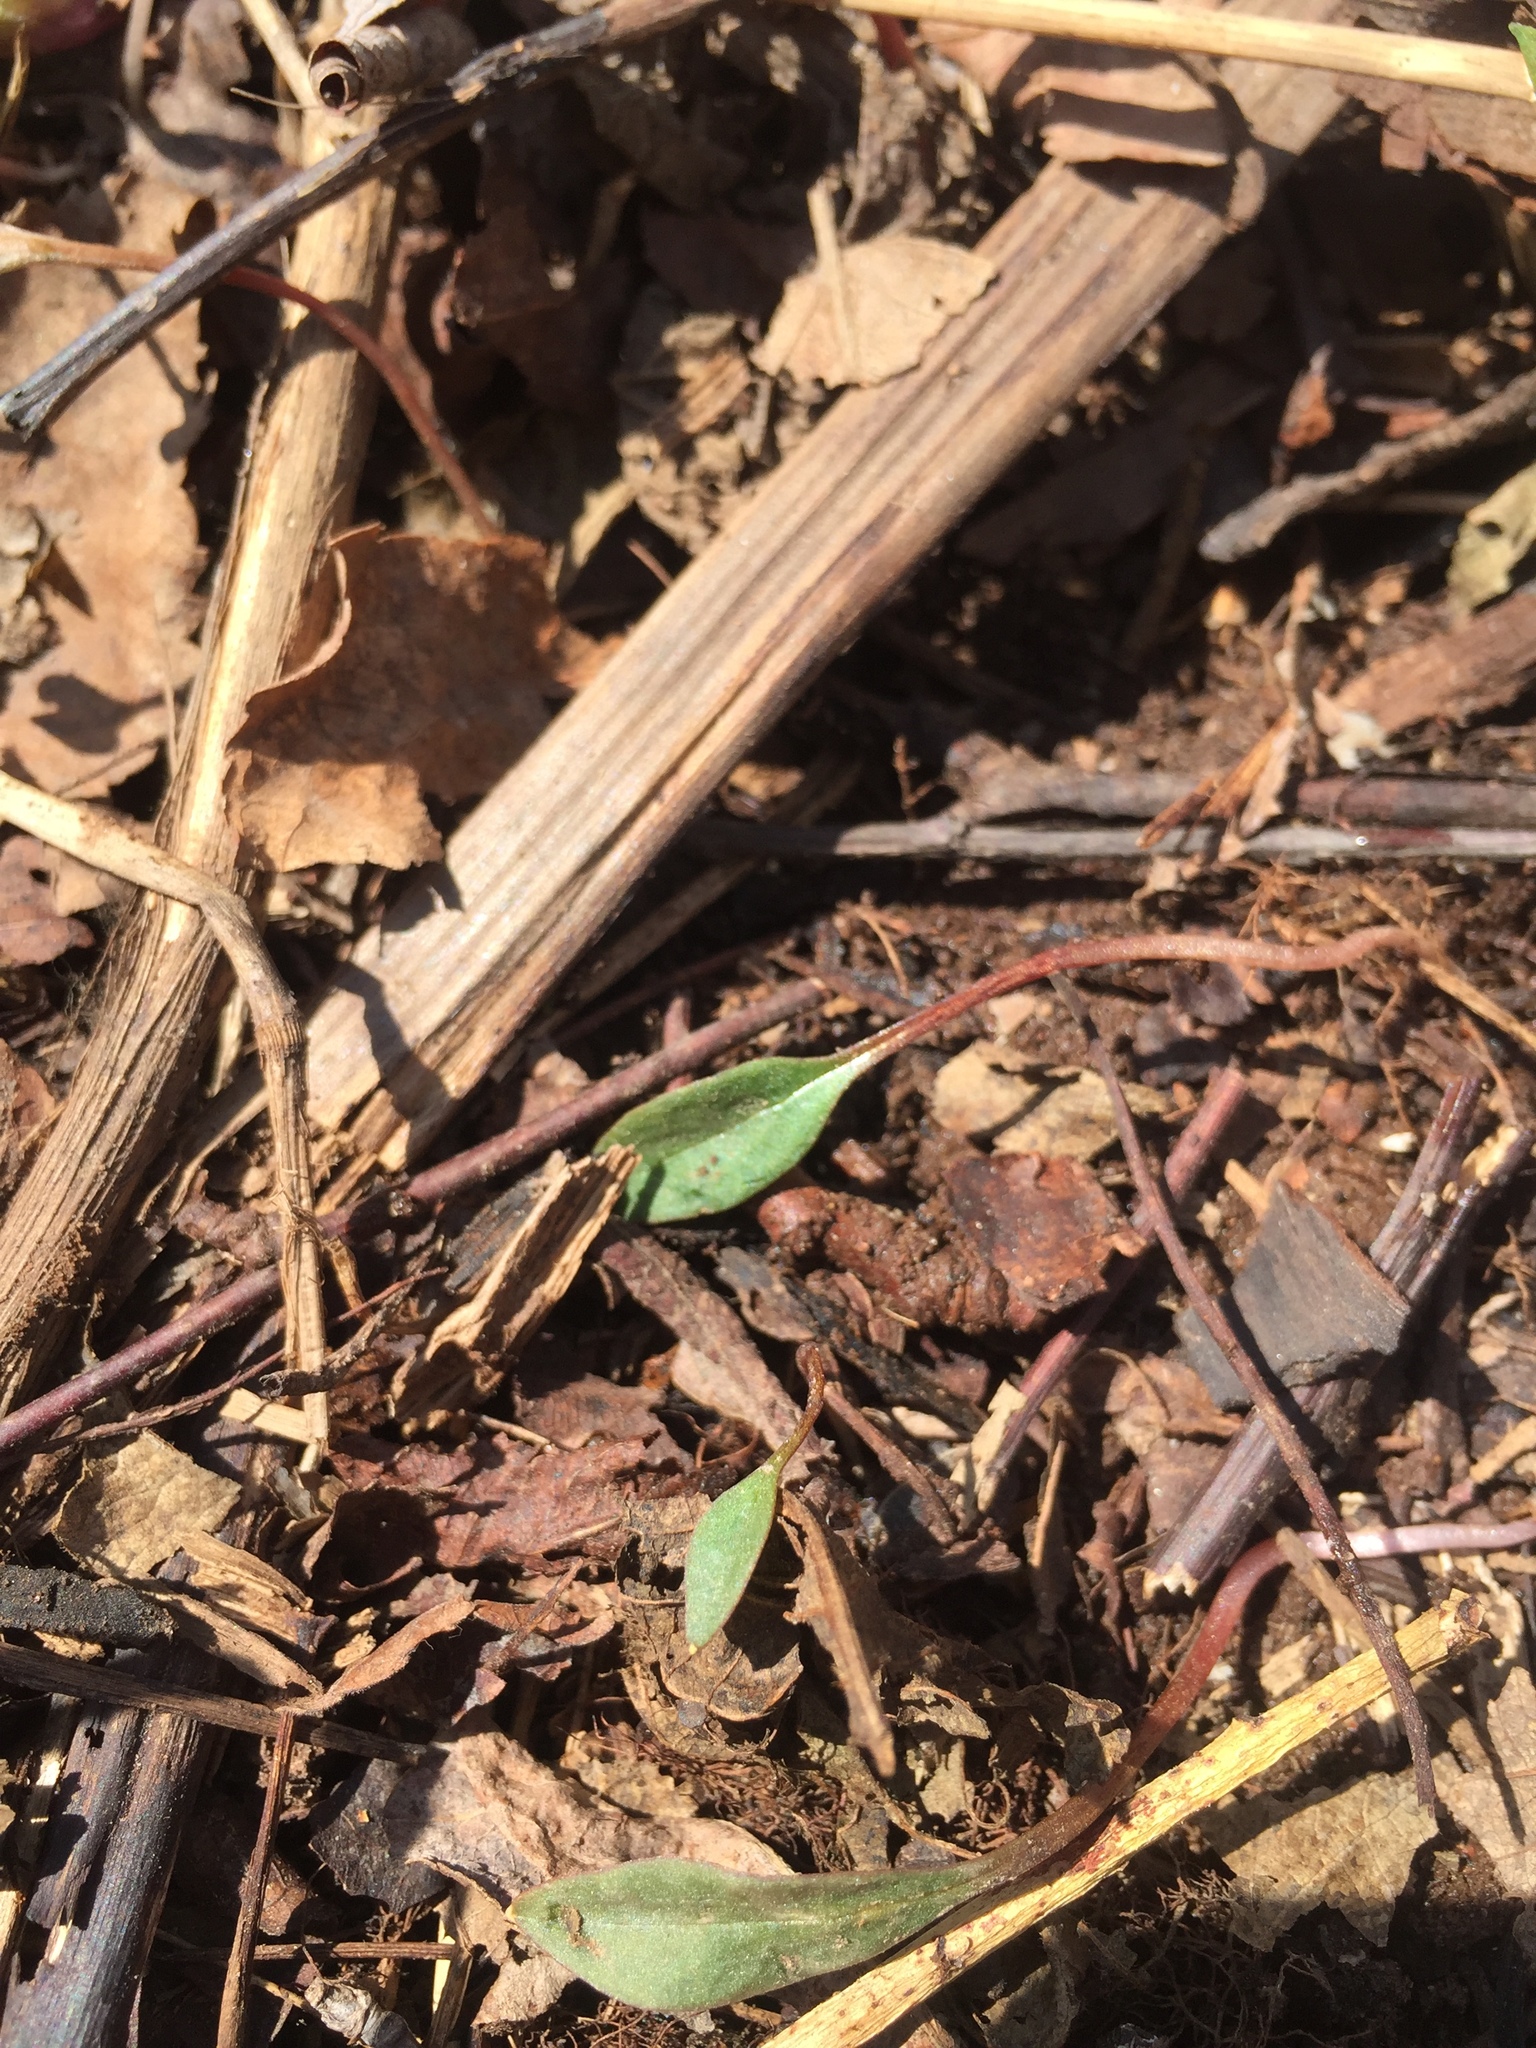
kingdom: Plantae
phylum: Tracheophyta
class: Magnoliopsida
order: Caryophyllales
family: Montiaceae
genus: Claytonia
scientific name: Claytonia caroliniana
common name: Carolina spring beauty
